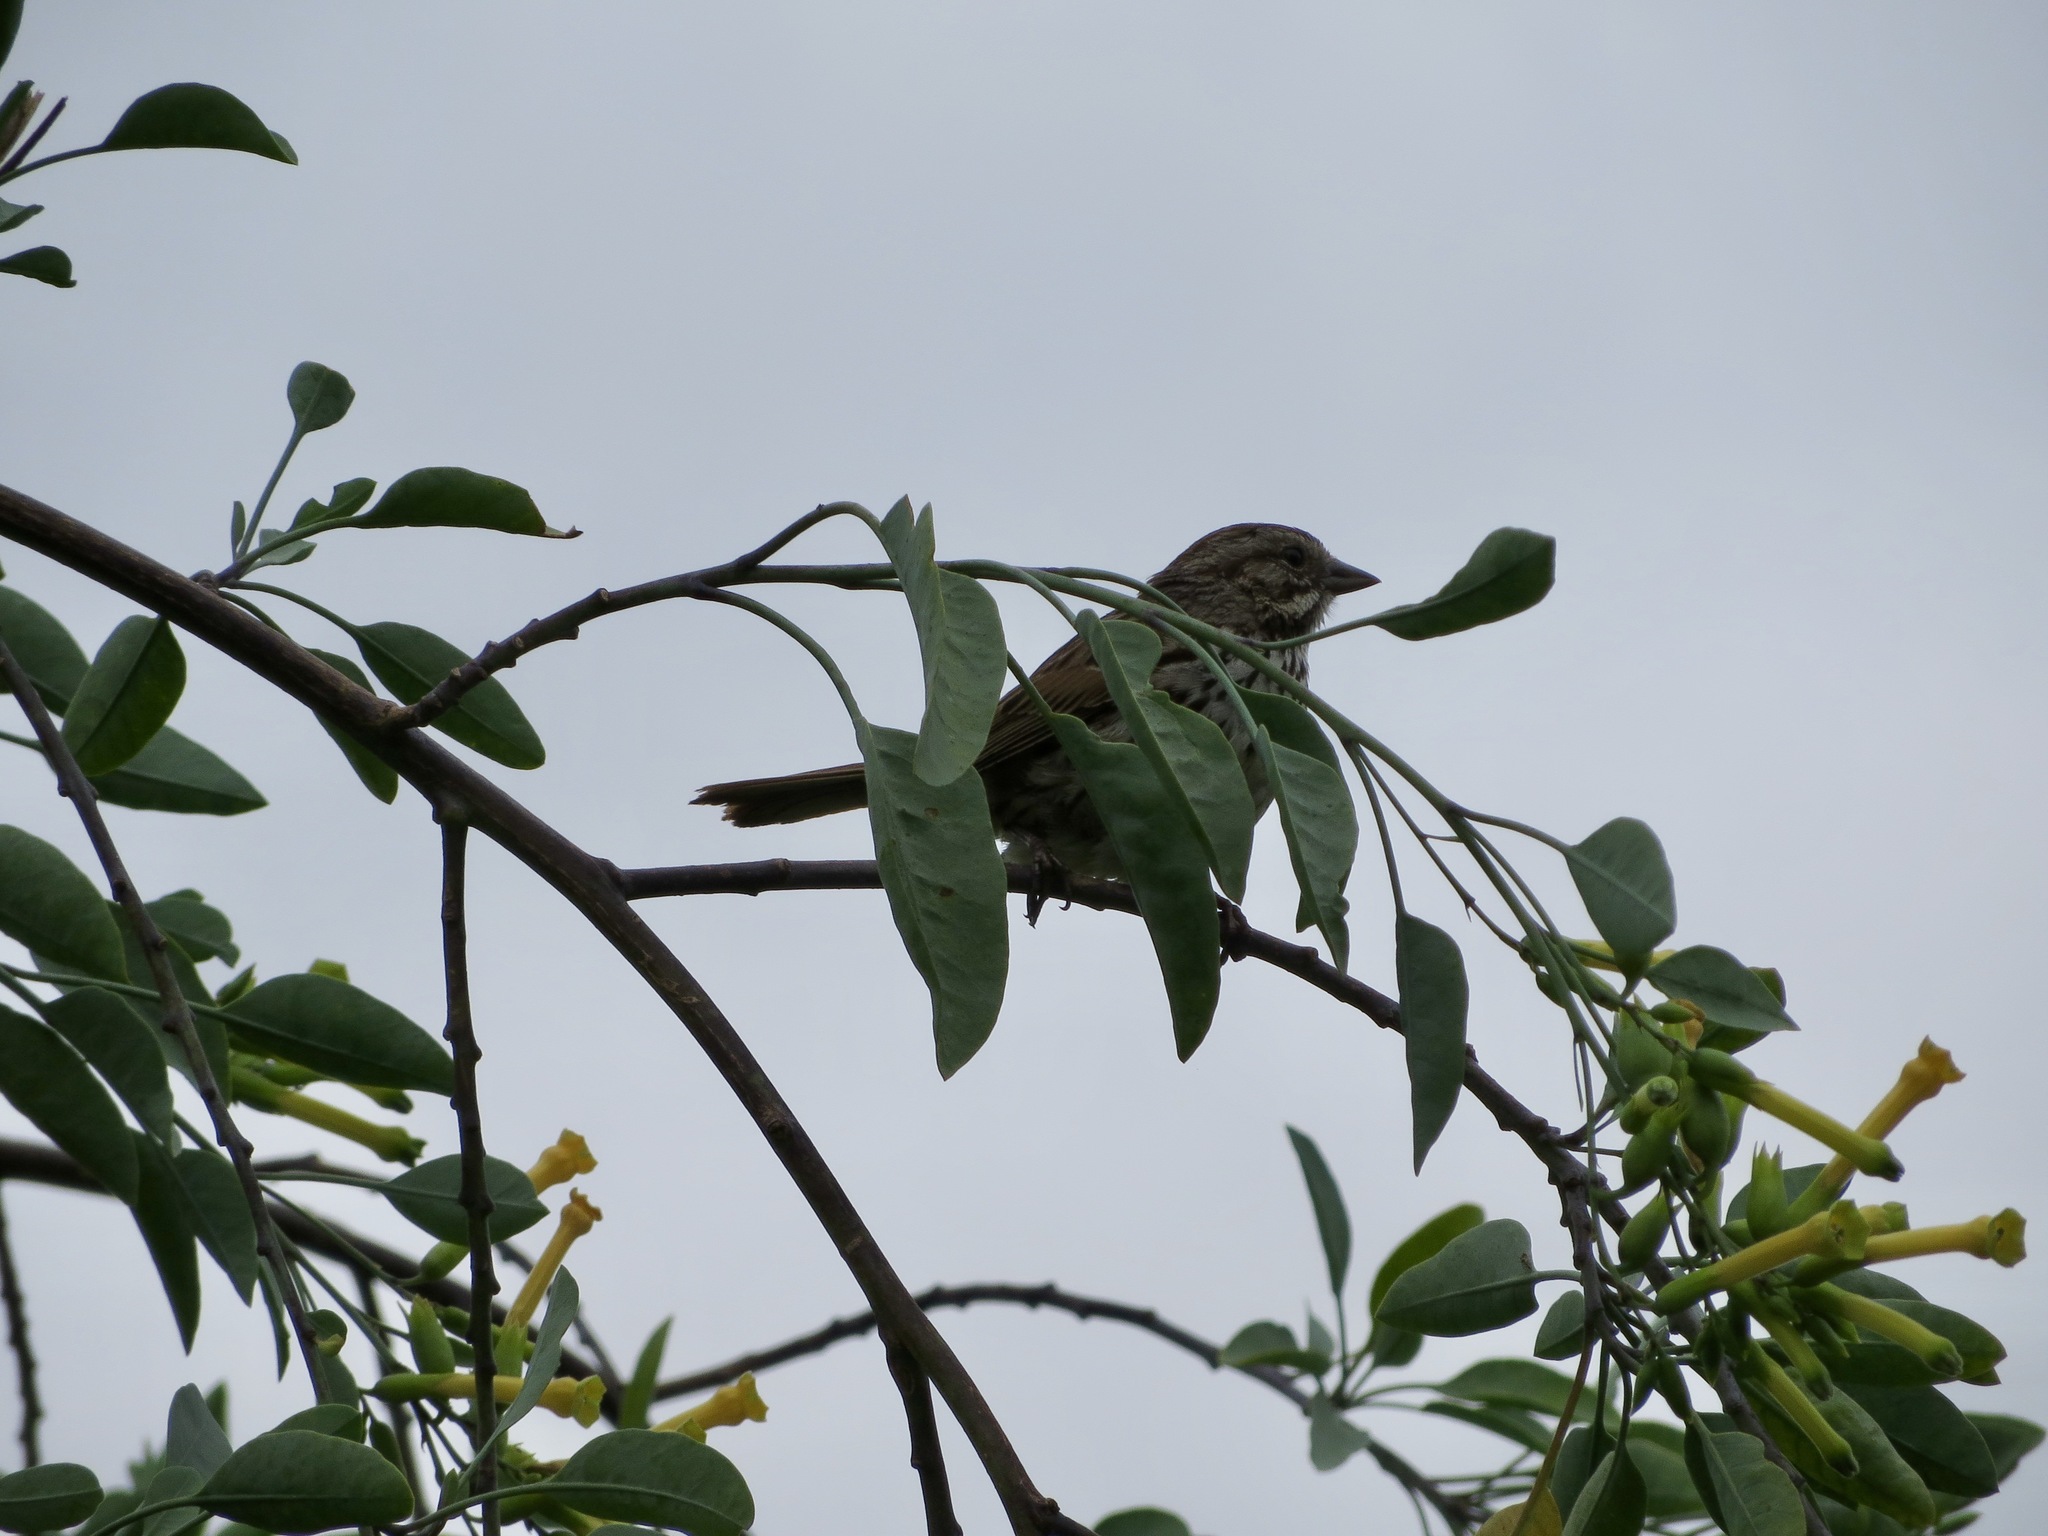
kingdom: Animalia
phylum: Chordata
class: Aves
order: Passeriformes
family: Passerellidae
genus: Melospiza
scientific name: Melospiza melodia
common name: Song sparrow
